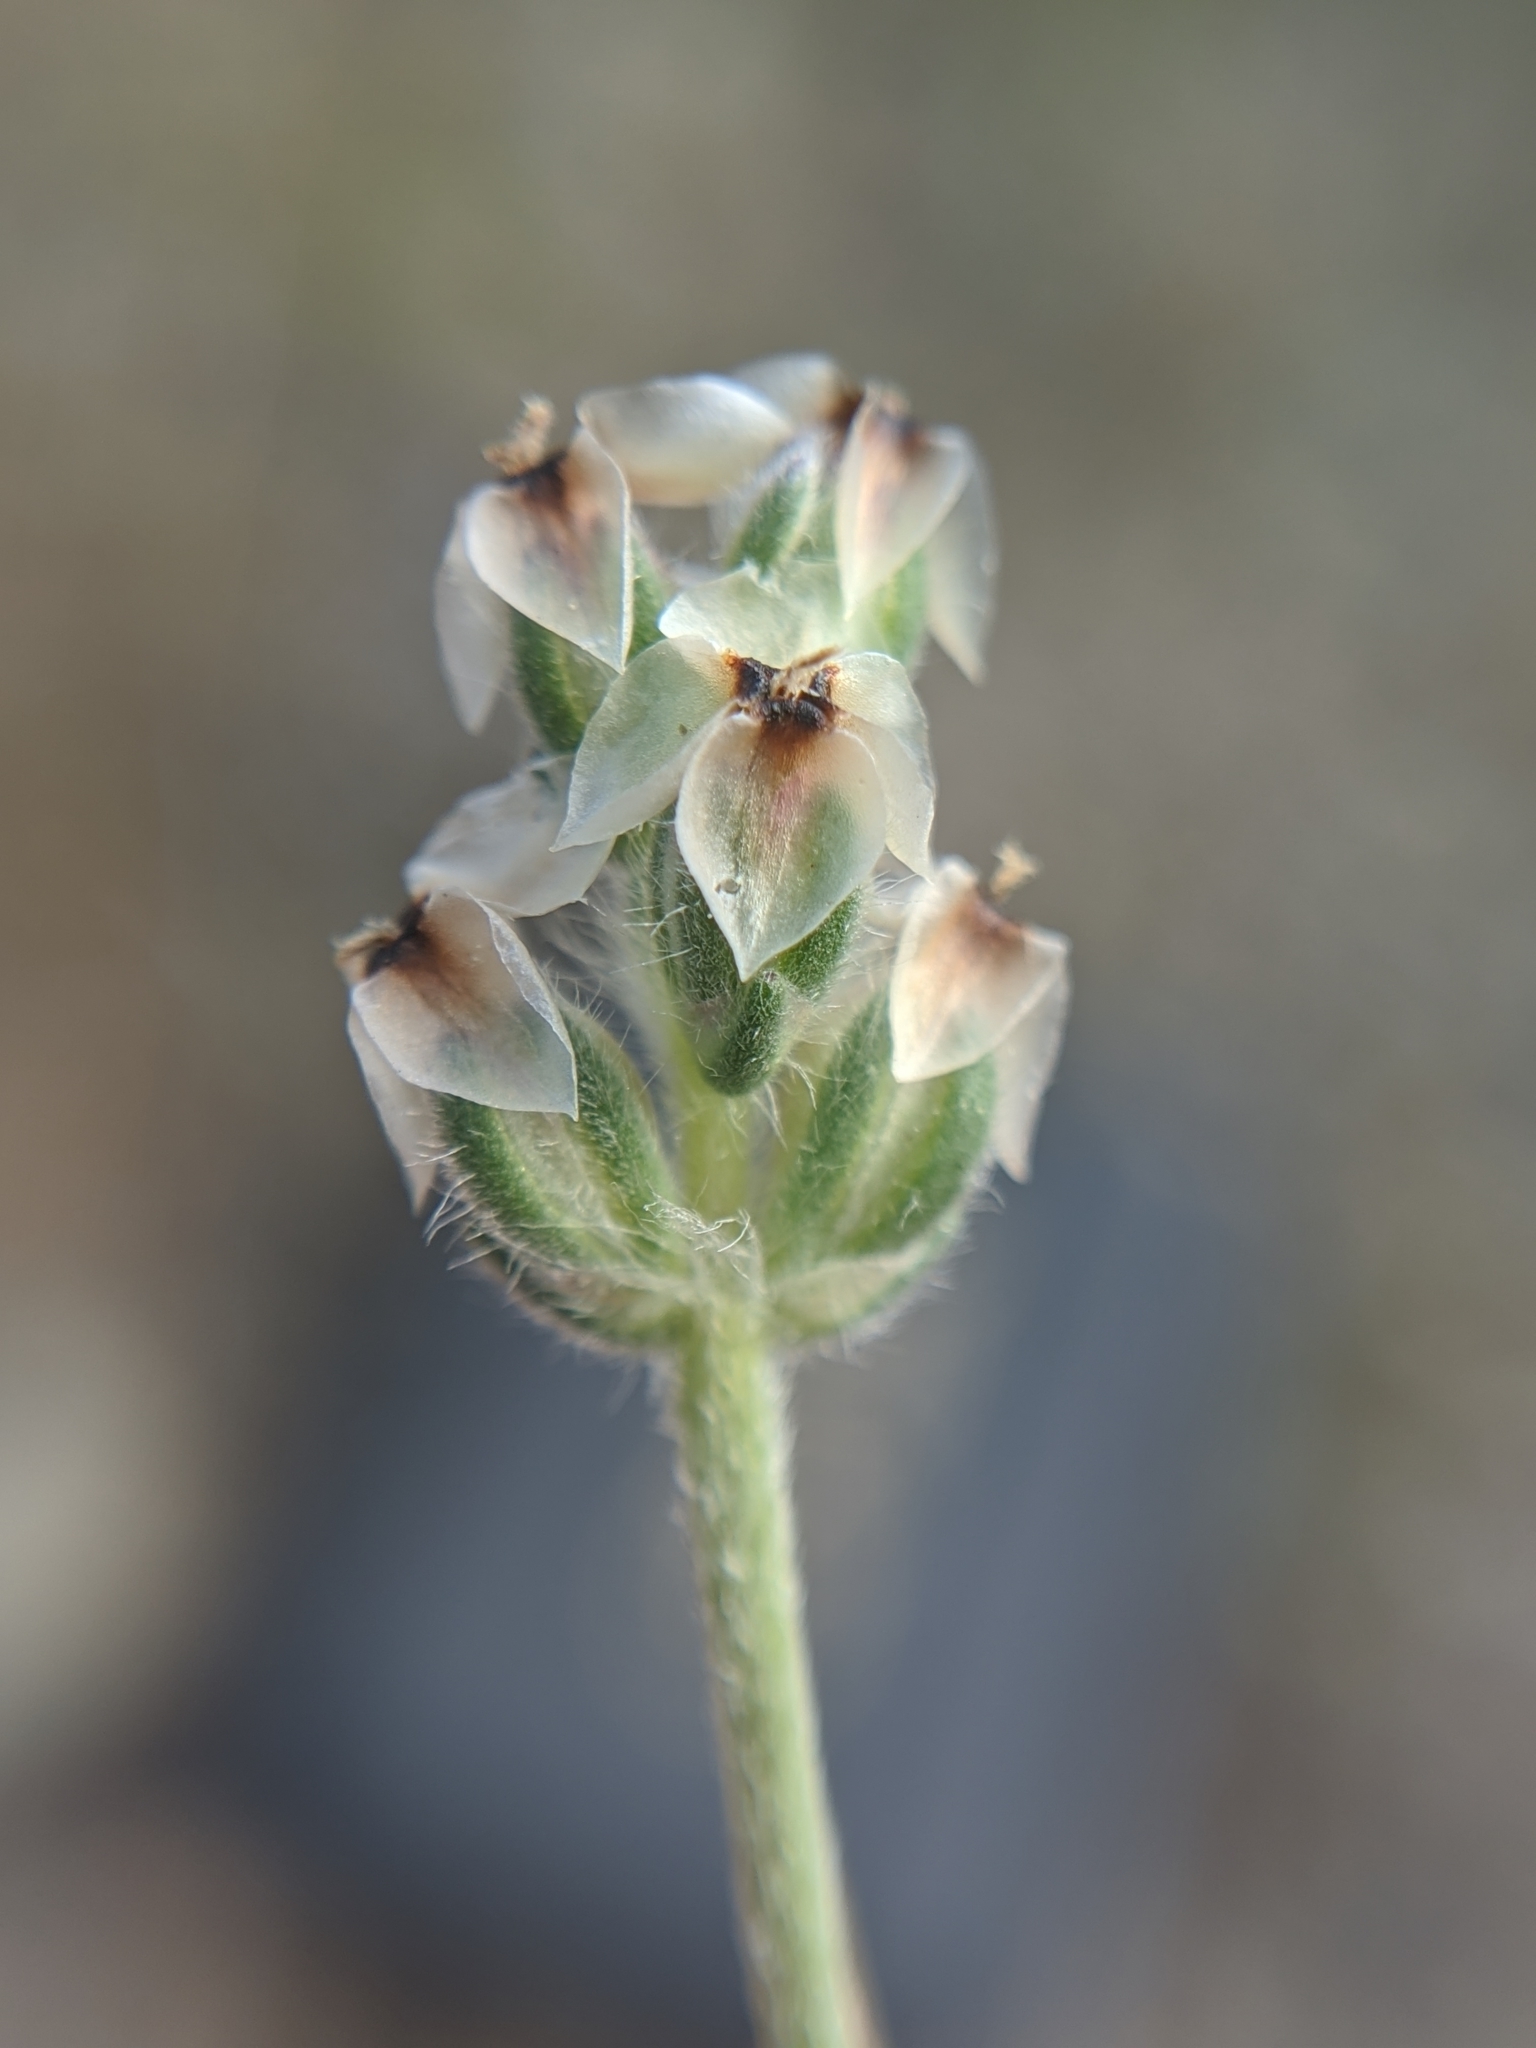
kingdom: Plantae
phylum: Tracheophyta
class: Magnoliopsida
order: Lamiales
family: Plantaginaceae
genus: Plantago
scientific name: Plantago erecta
